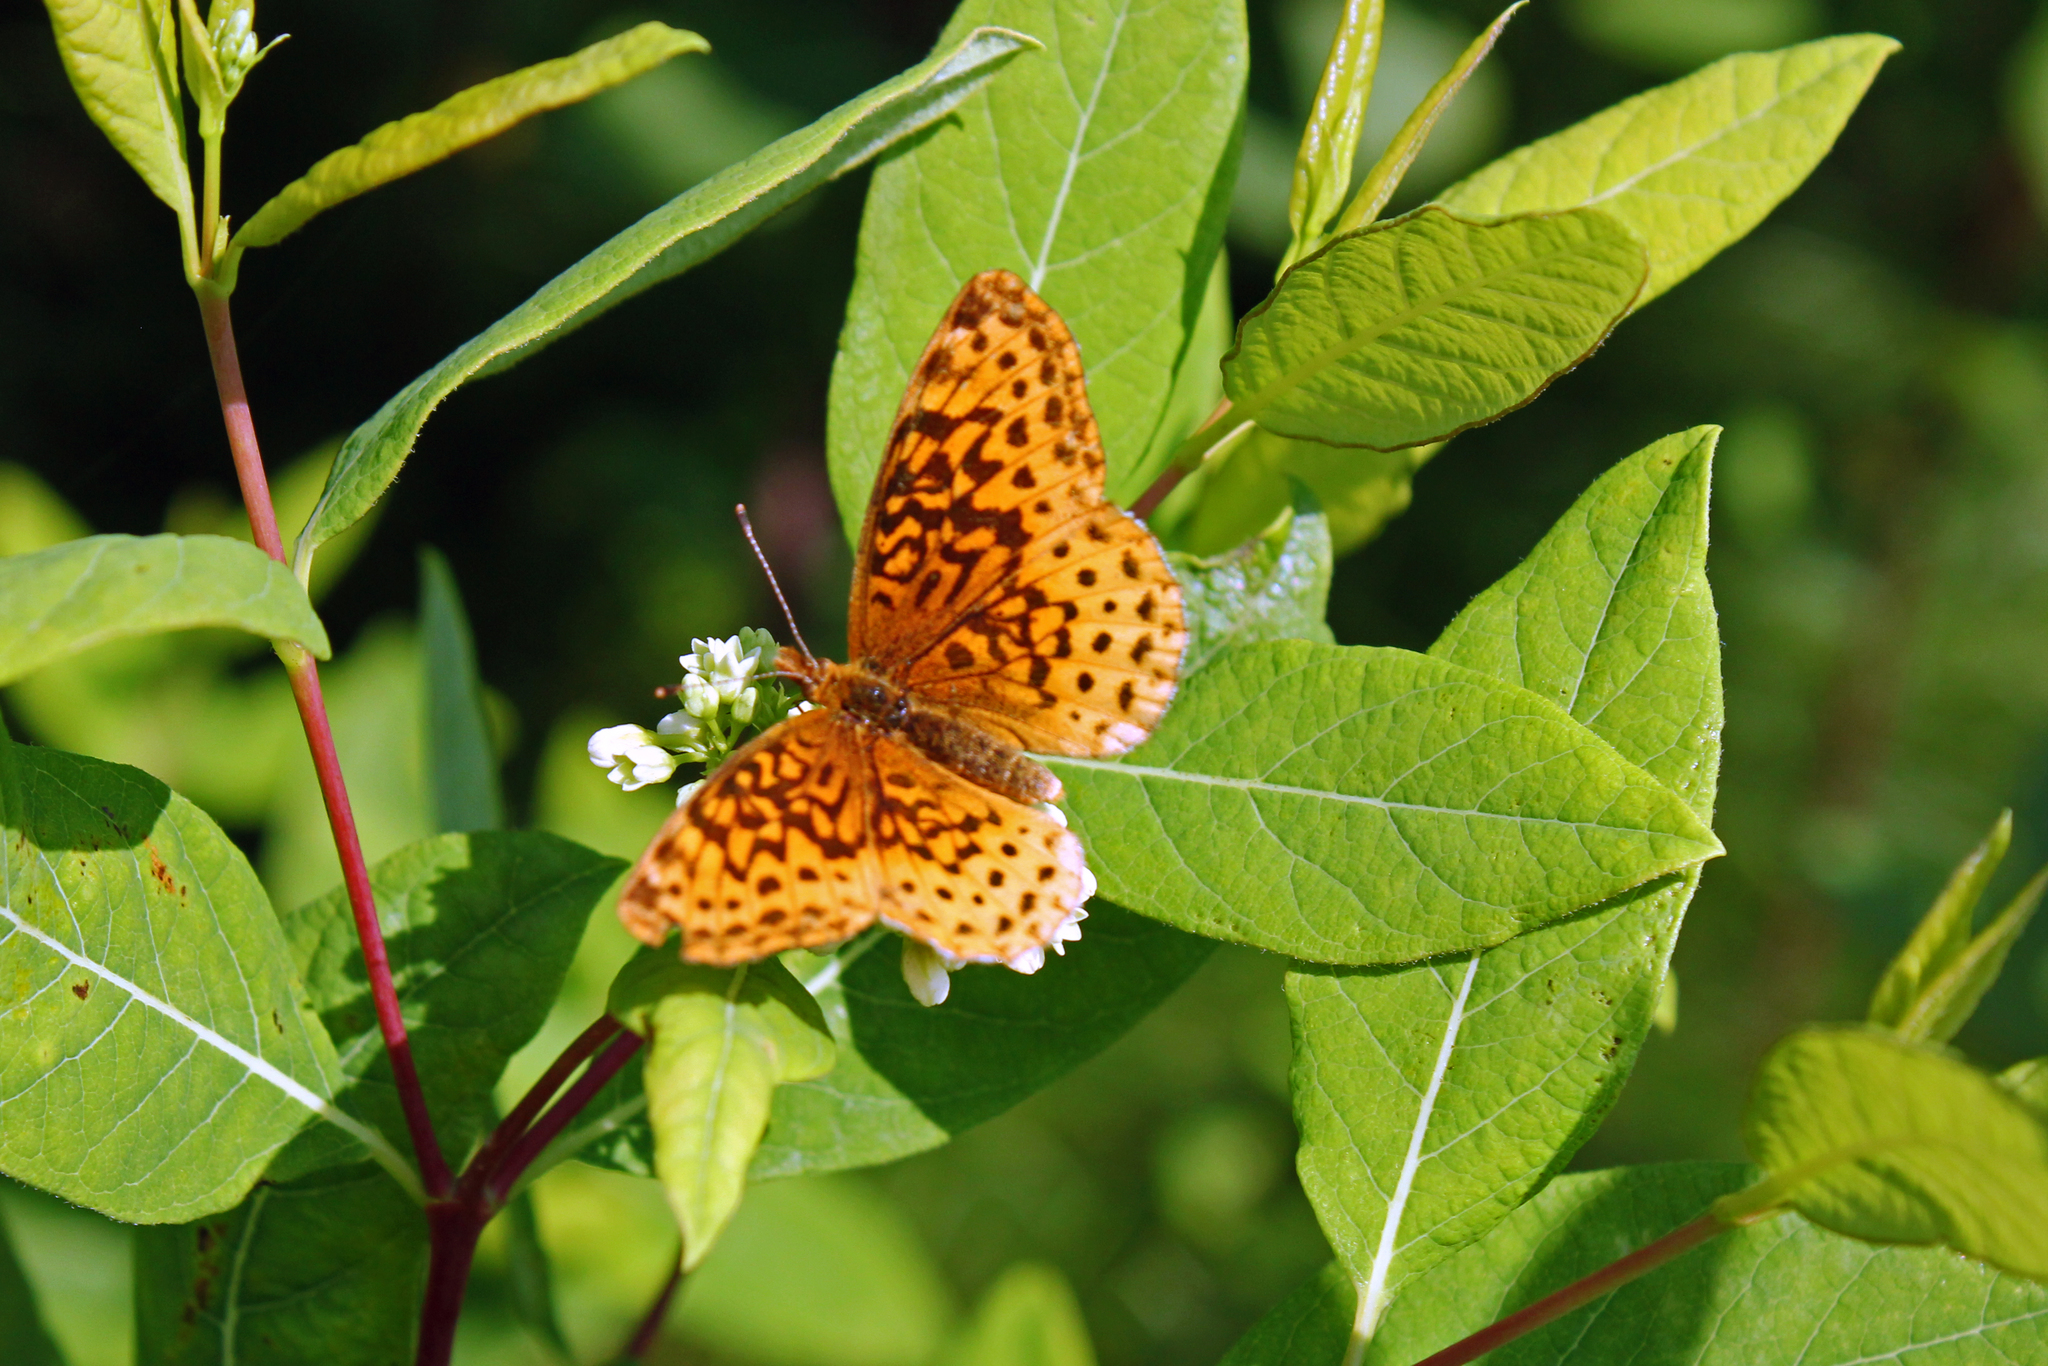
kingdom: Animalia
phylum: Arthropoda
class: Insecta
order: Lepidoptera
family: Nymphalidae
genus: Clossiana
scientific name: Clossiana toddi
